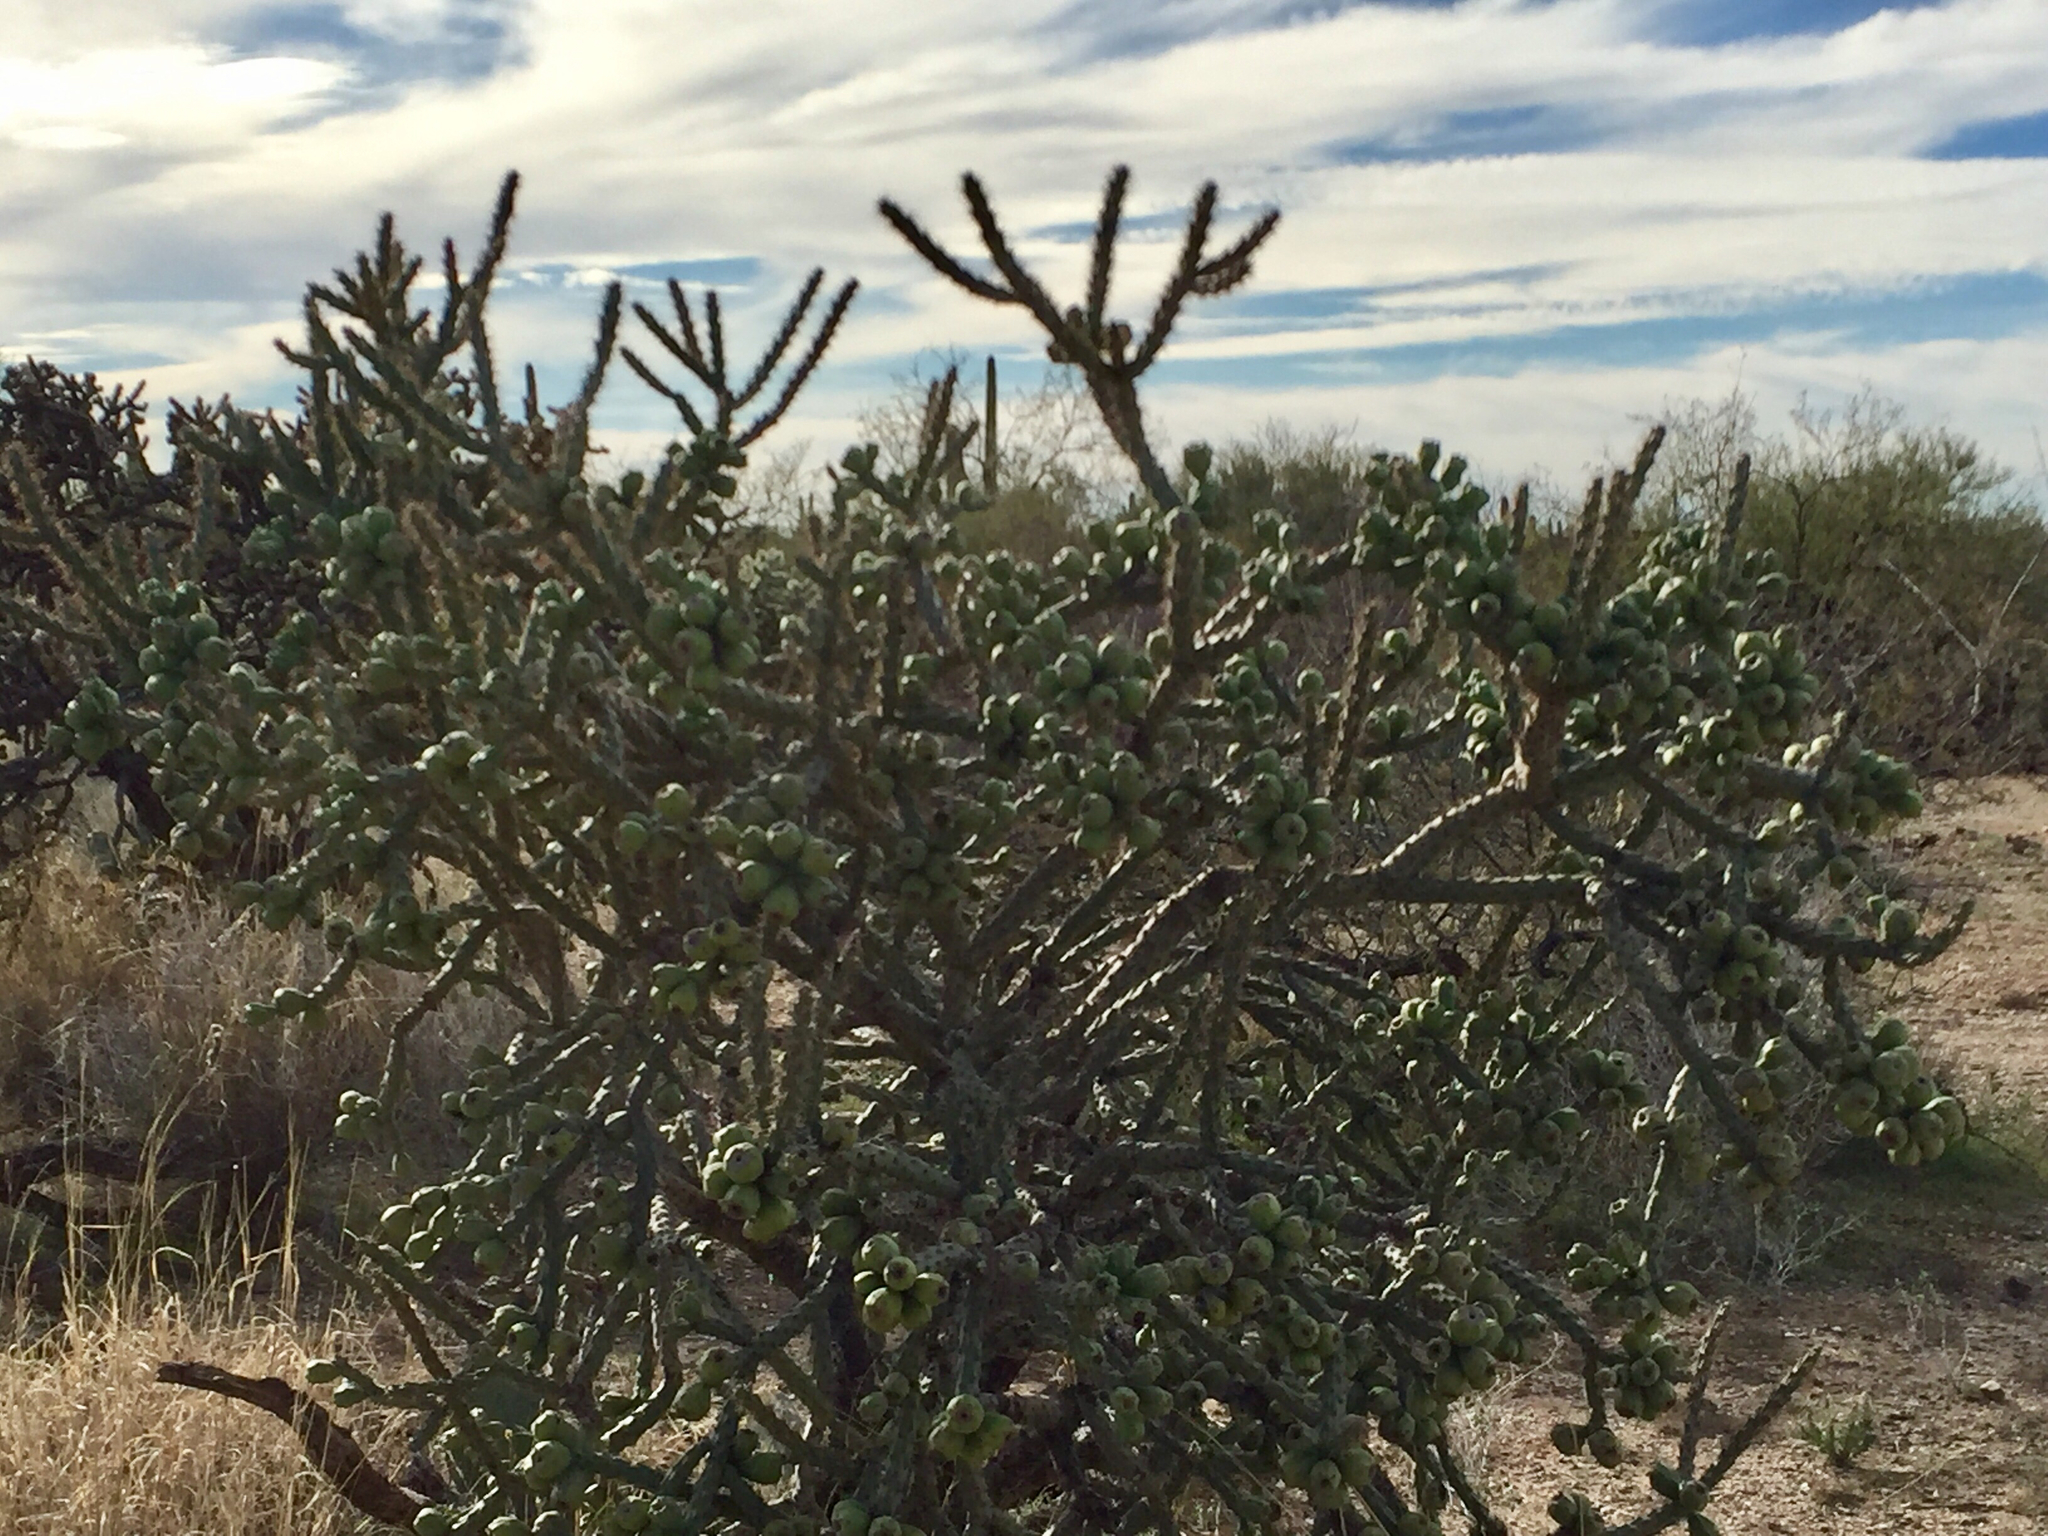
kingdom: Plantae
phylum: Tracheophyta
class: Magnoliopsida
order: Caryophyllales
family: Cactaceae
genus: Cylindropuntia
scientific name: Cylindropuntia thurberi
